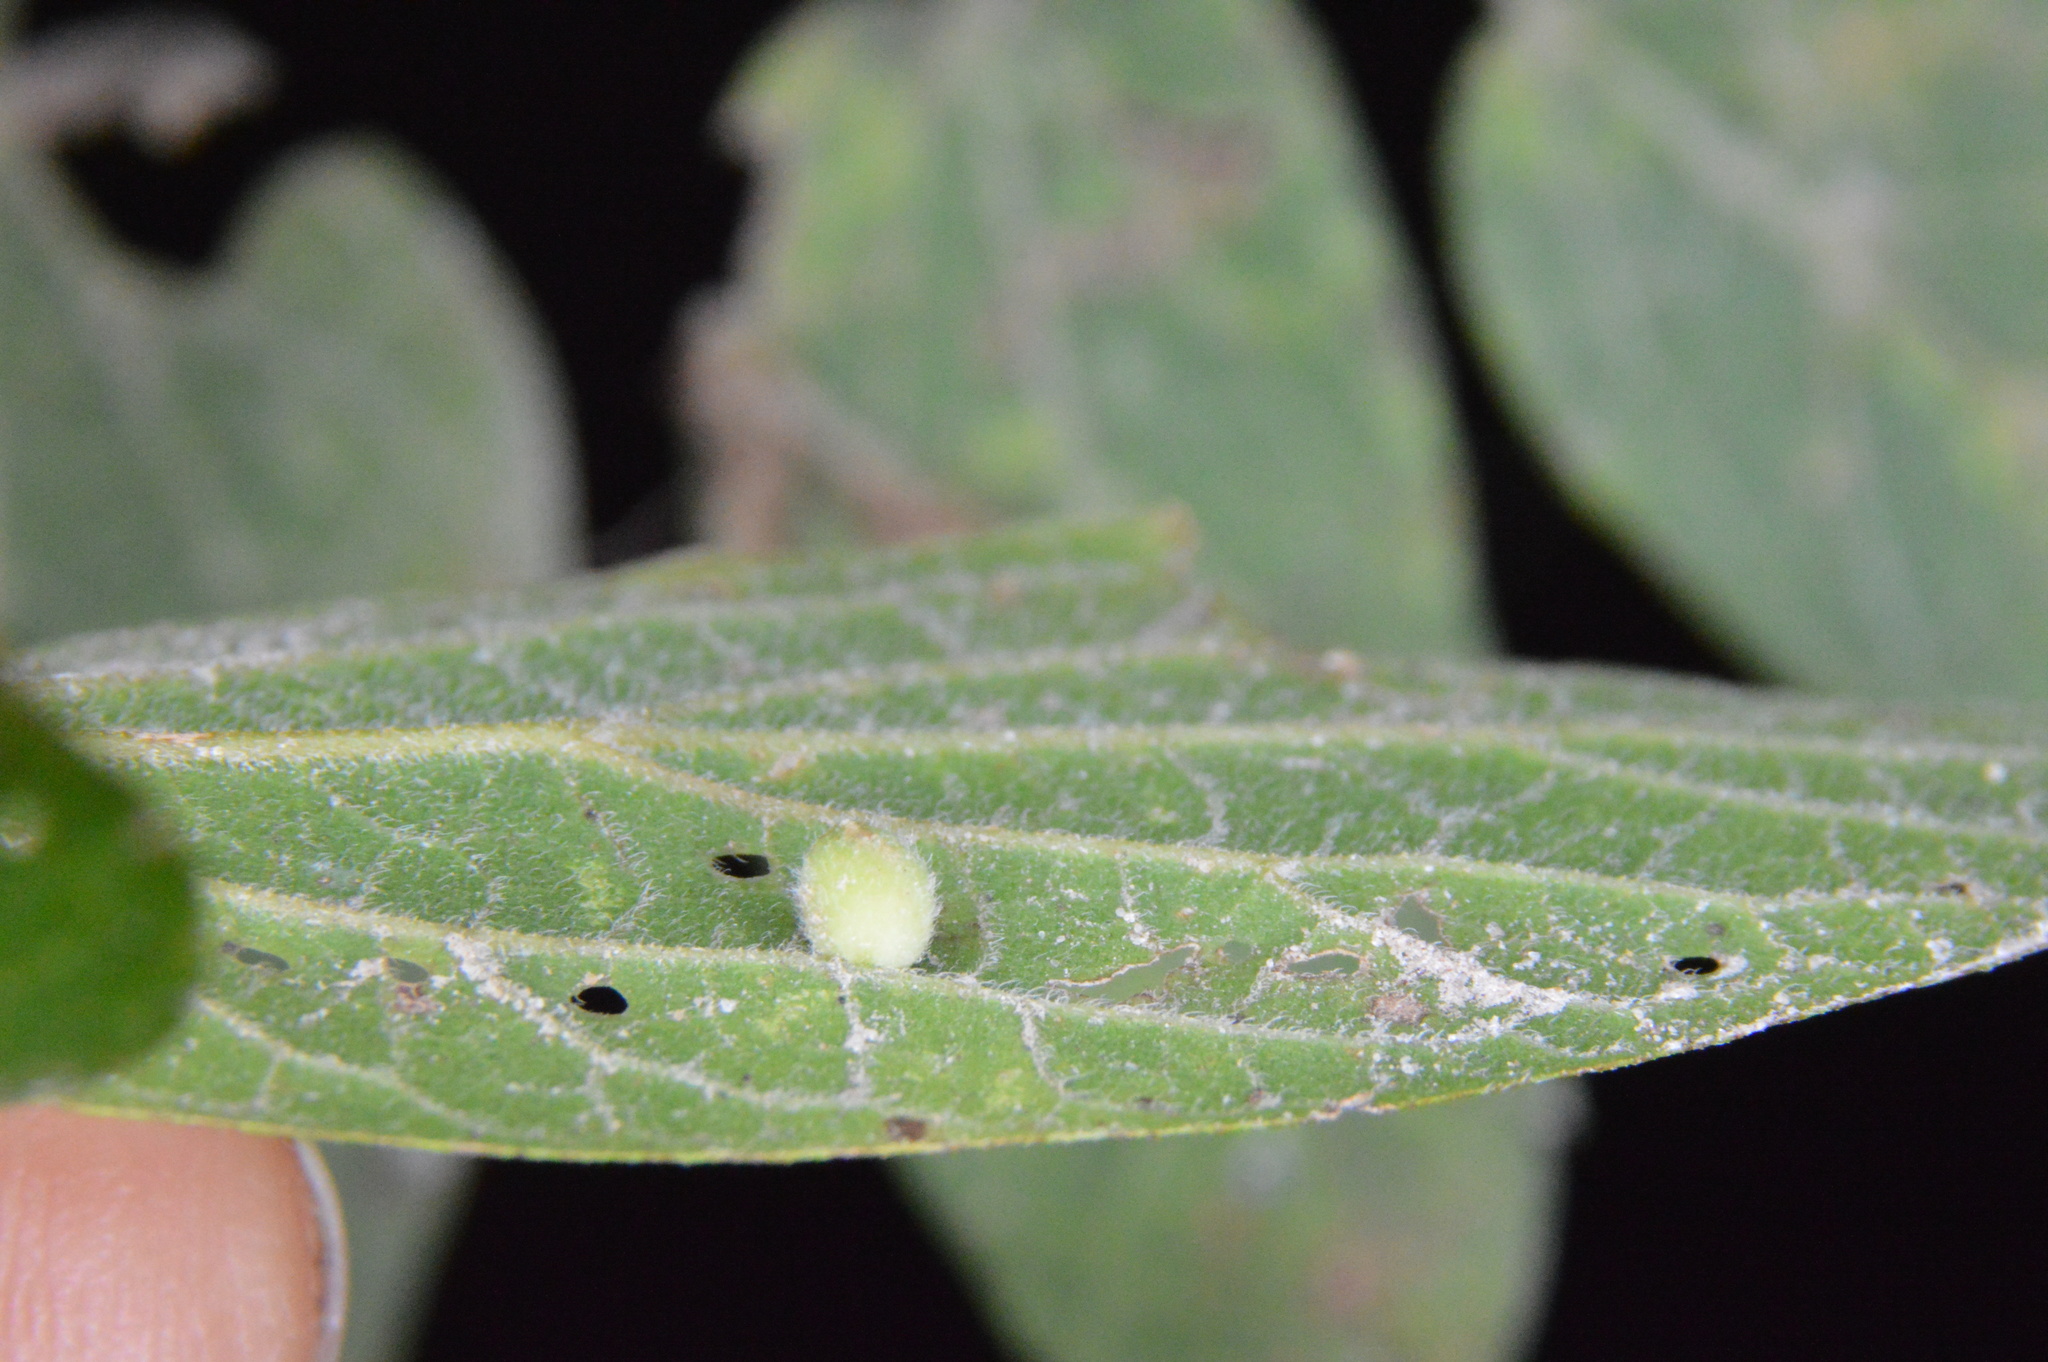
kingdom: Animalia
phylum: Arthropoda
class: Insecta
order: Diptera
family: Cecidomyiidae
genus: Celticecis
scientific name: Celticecis globosa
